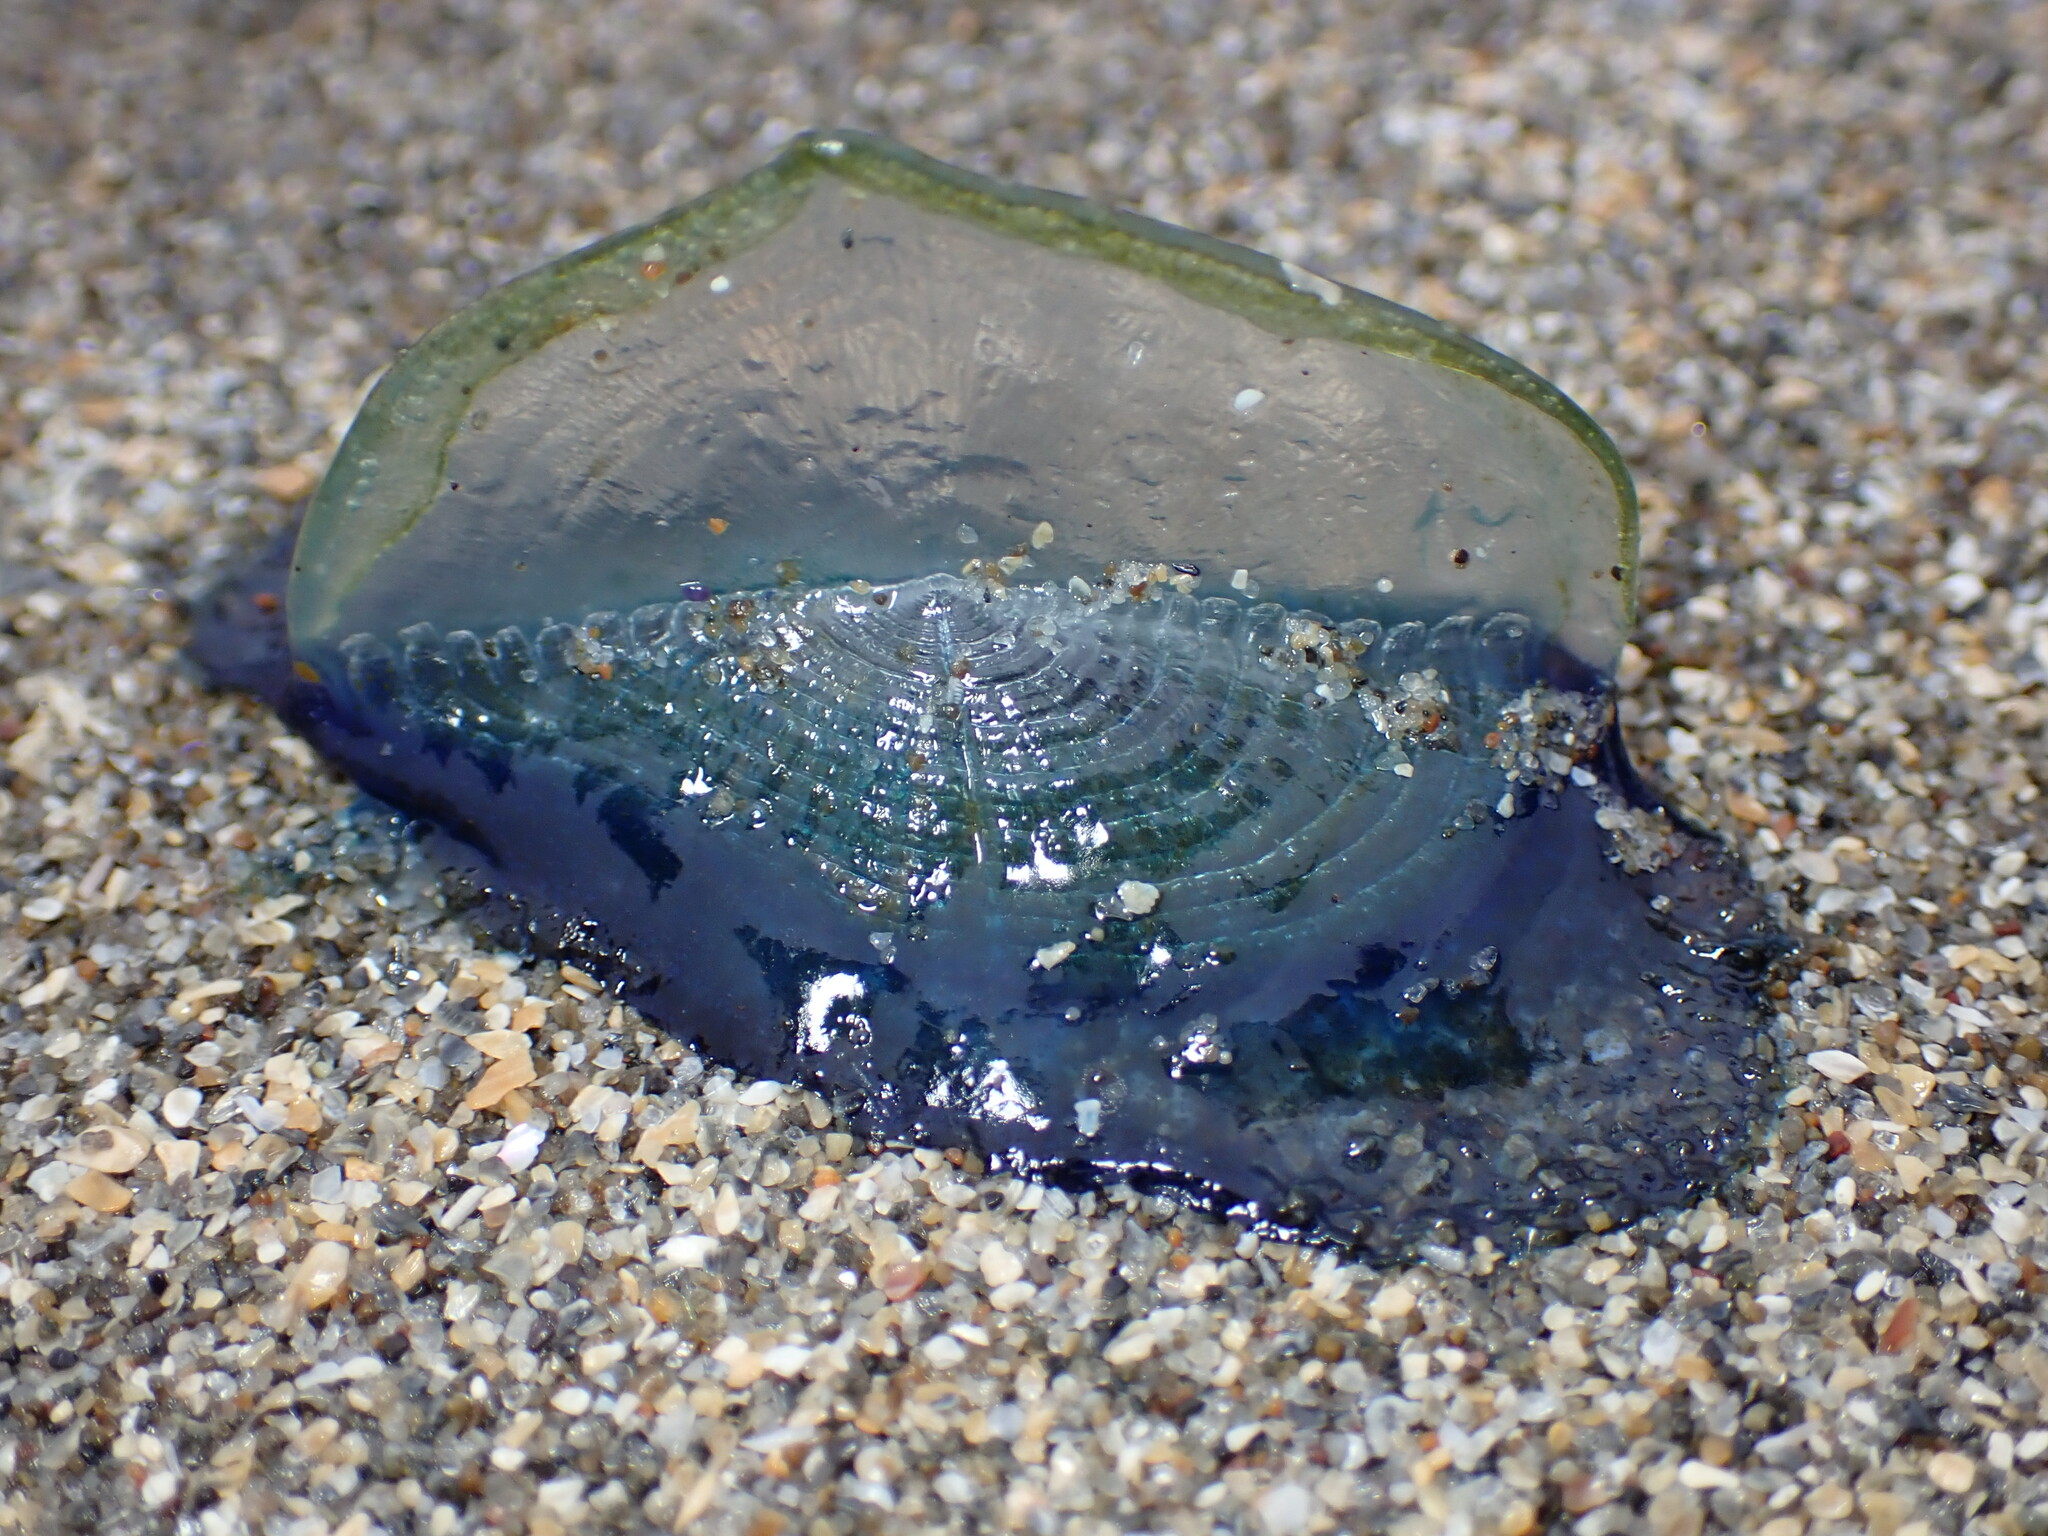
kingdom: Animalia
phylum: Cnidaria
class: Hydrozoa
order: Anthoathecata
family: Porpitidae
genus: Velella
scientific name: Velella velella
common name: By-the-wind-sailor
